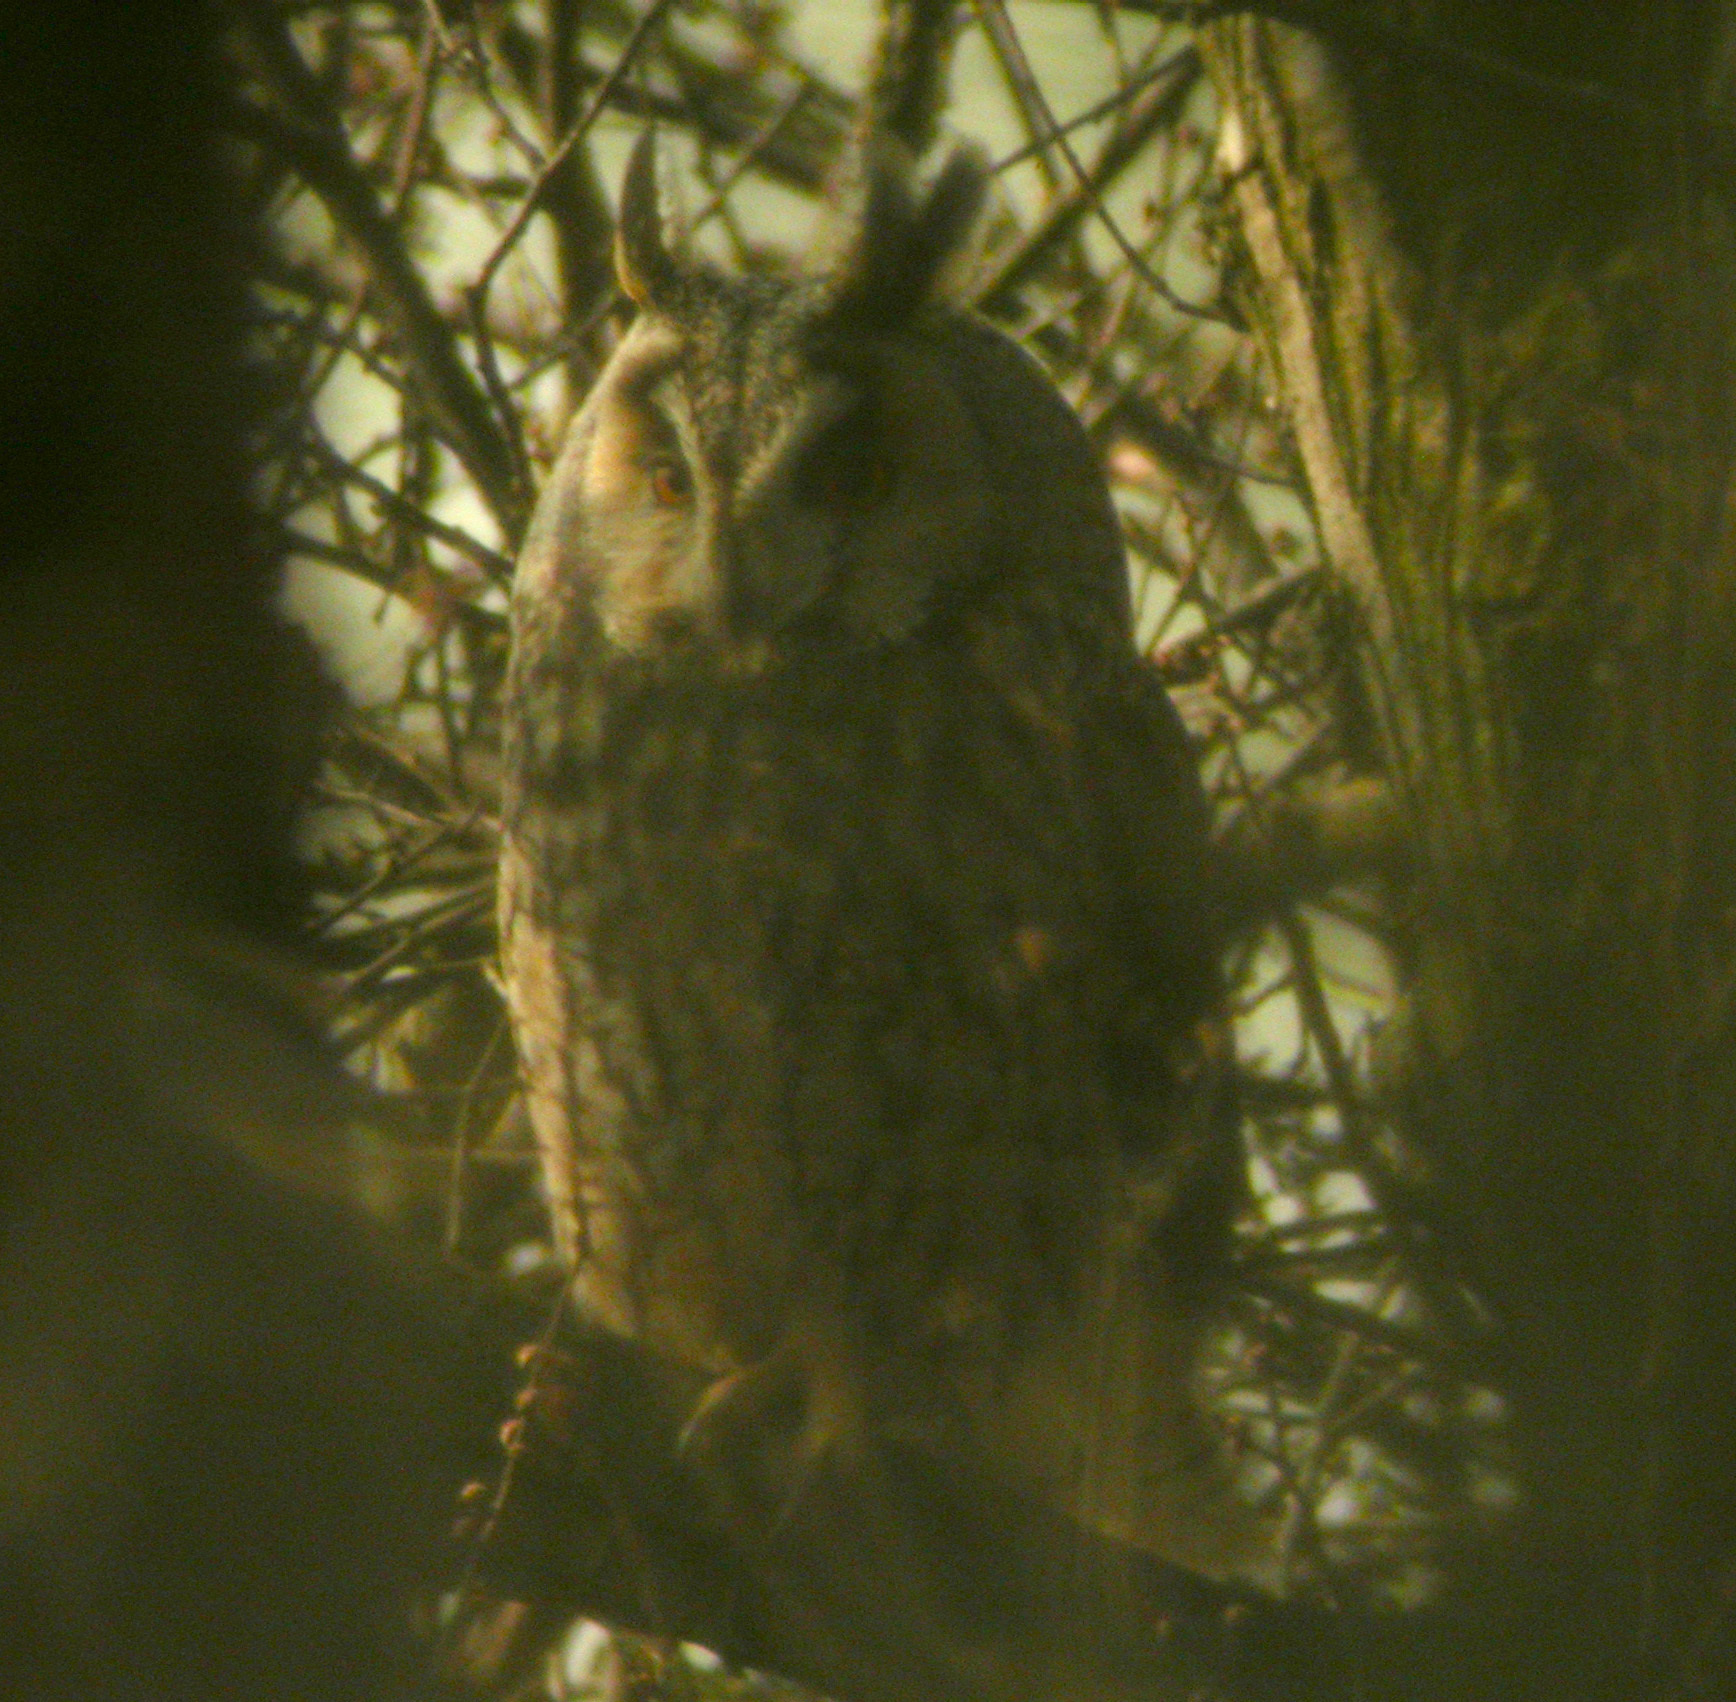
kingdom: Animalia
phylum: Chordata
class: Aves
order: Strigiformes
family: Strigidae
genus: Asio
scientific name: Asio otus
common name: Long-eared owl
